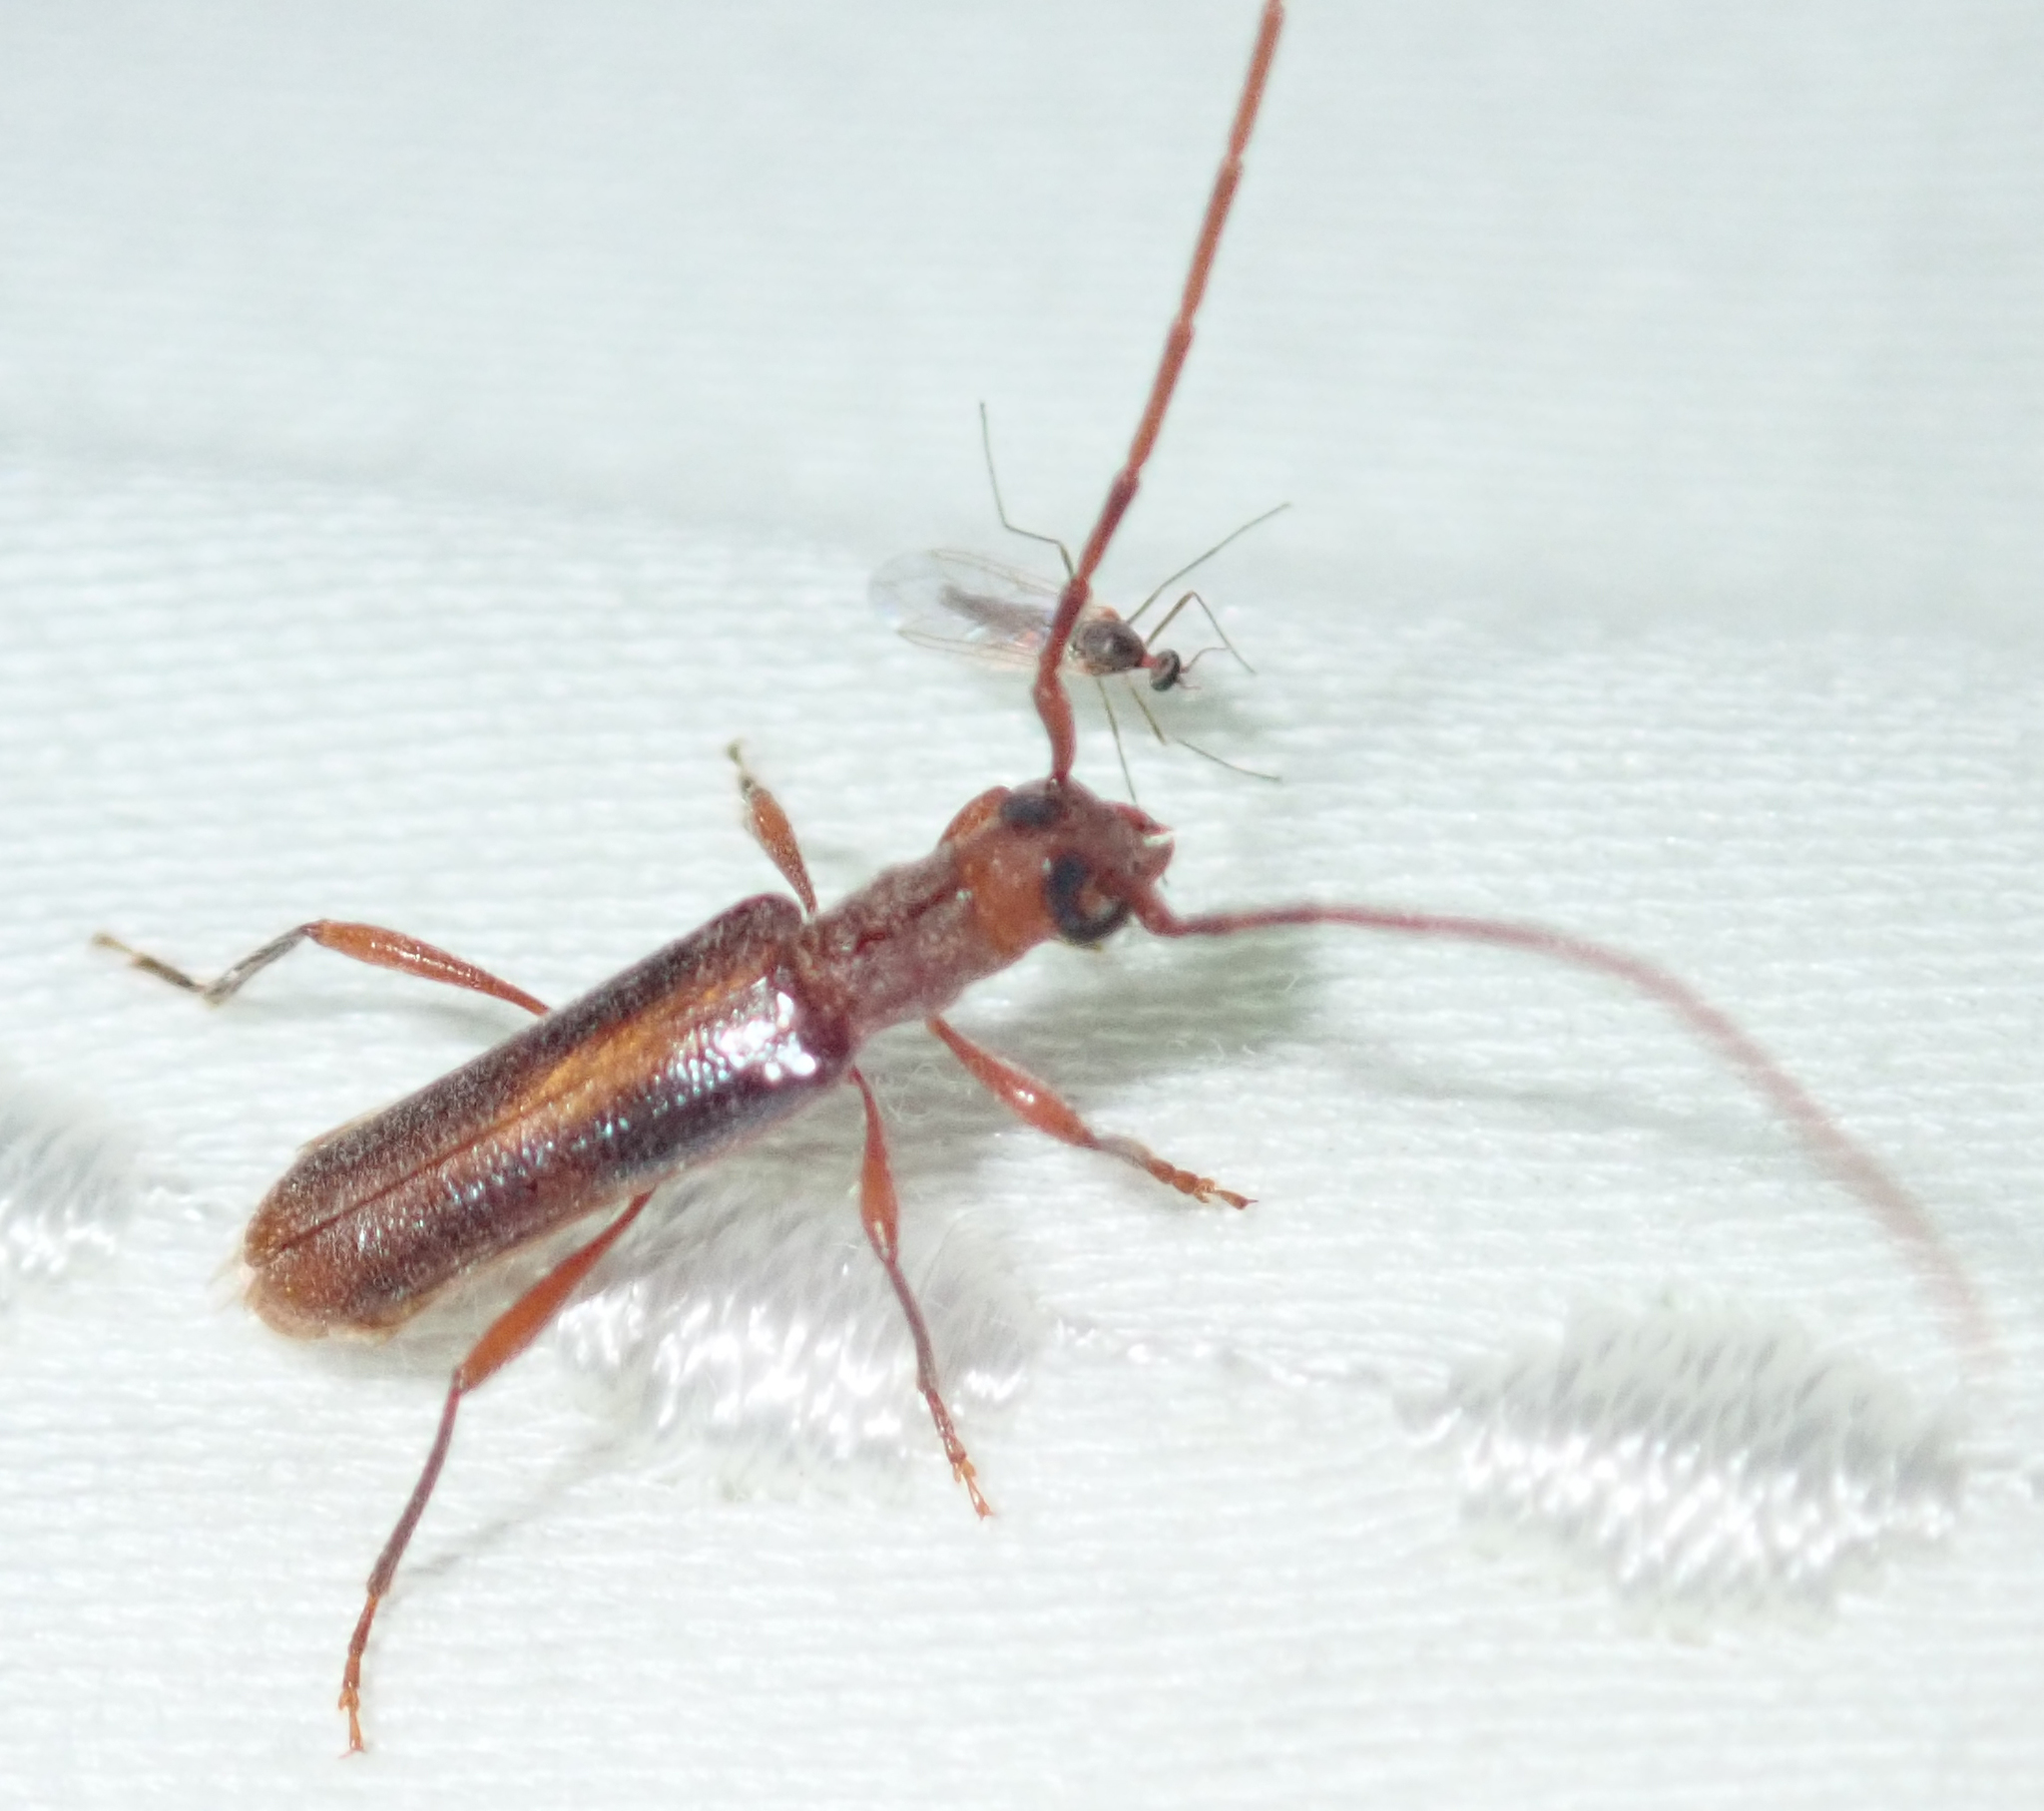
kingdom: Animalia
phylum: Arthropoda
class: Insecta
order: Coleoptera
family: Cerambycidae
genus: Ossibia
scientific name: Ossibia fuscata
